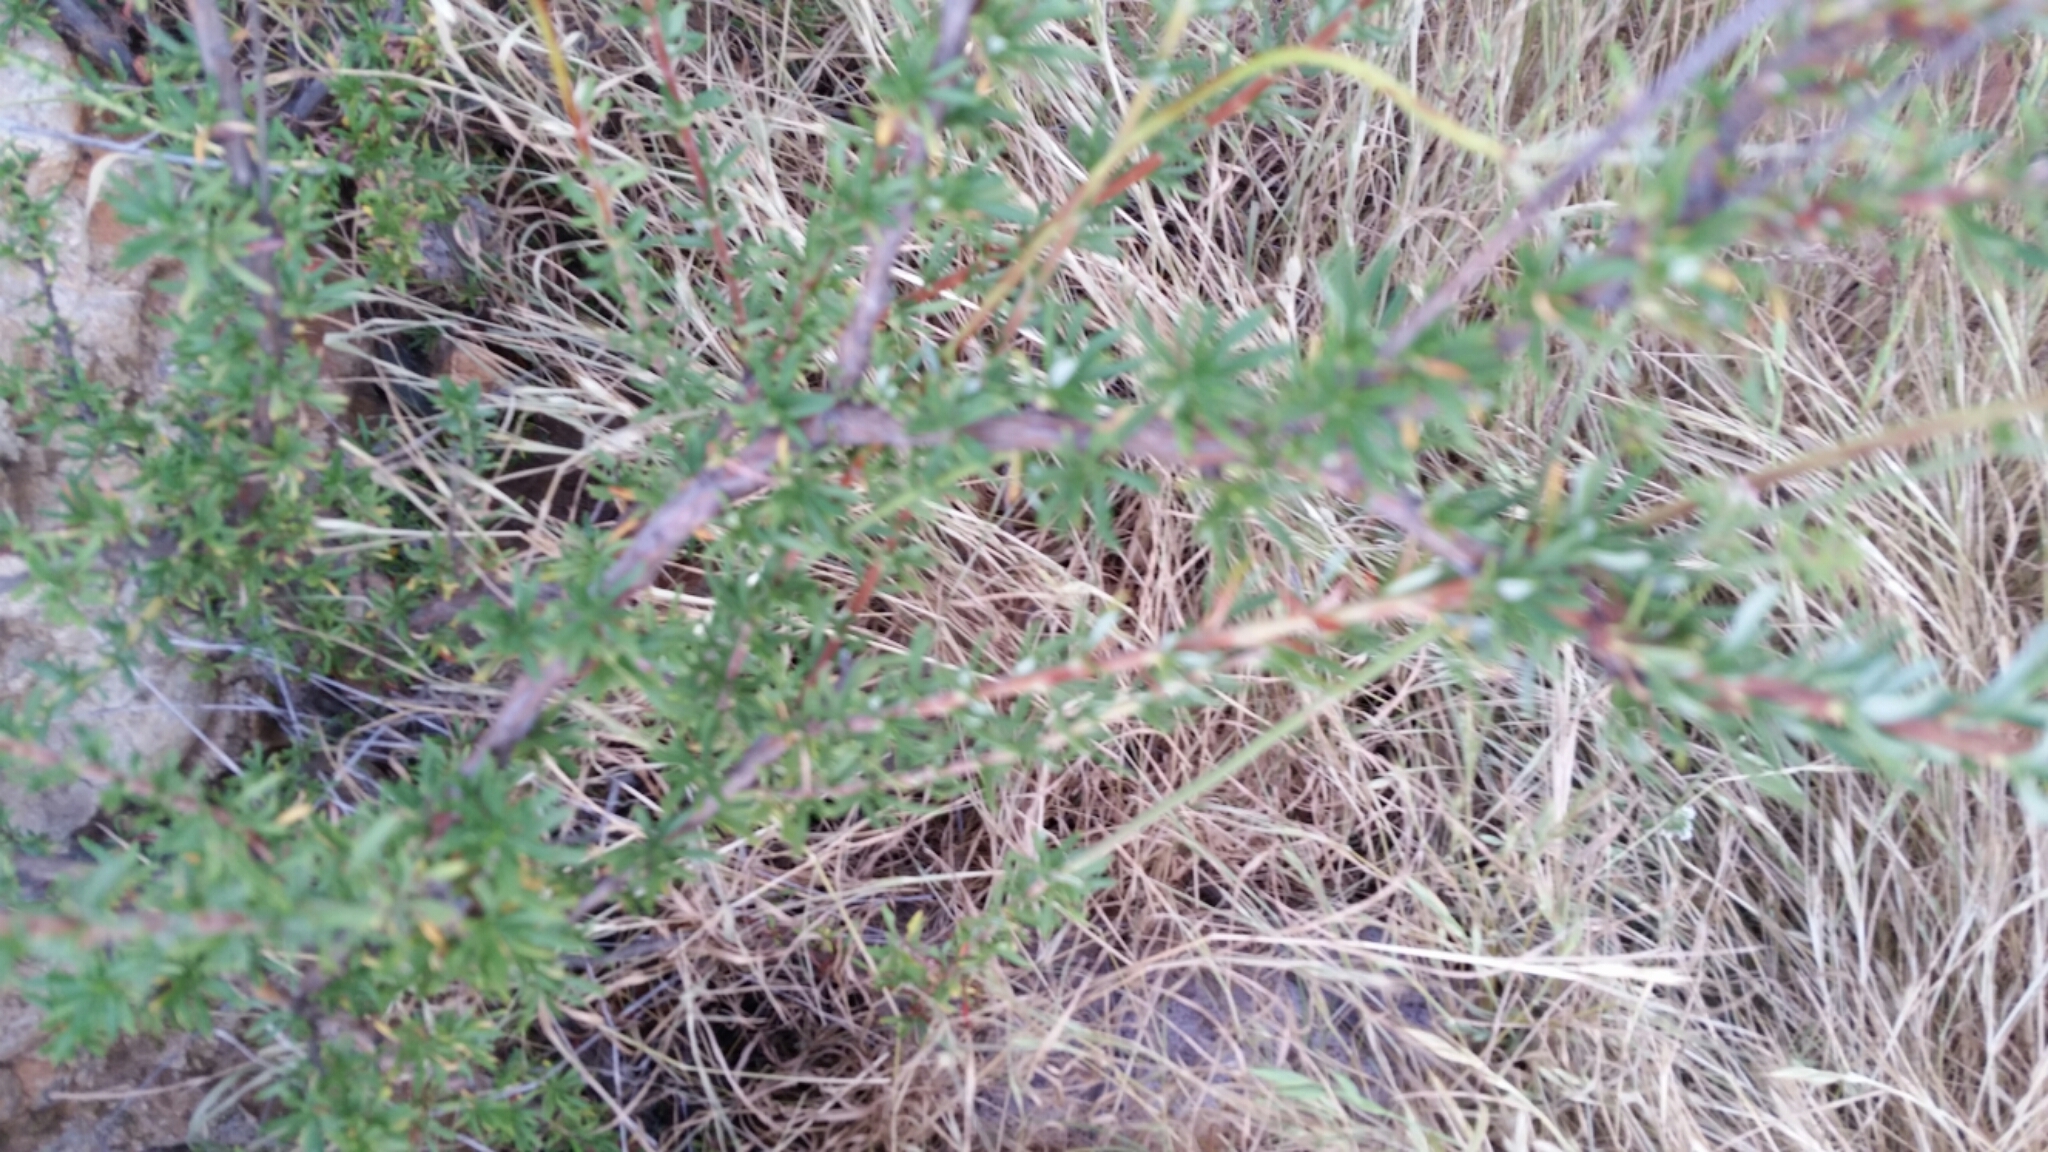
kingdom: Plantae
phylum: Tracheophyta
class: Magnoliopsida
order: Caryophyllales
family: Polygonaceae
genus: Eriogonum
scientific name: Eriogonum fasciculatum
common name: California wild buckwheat
